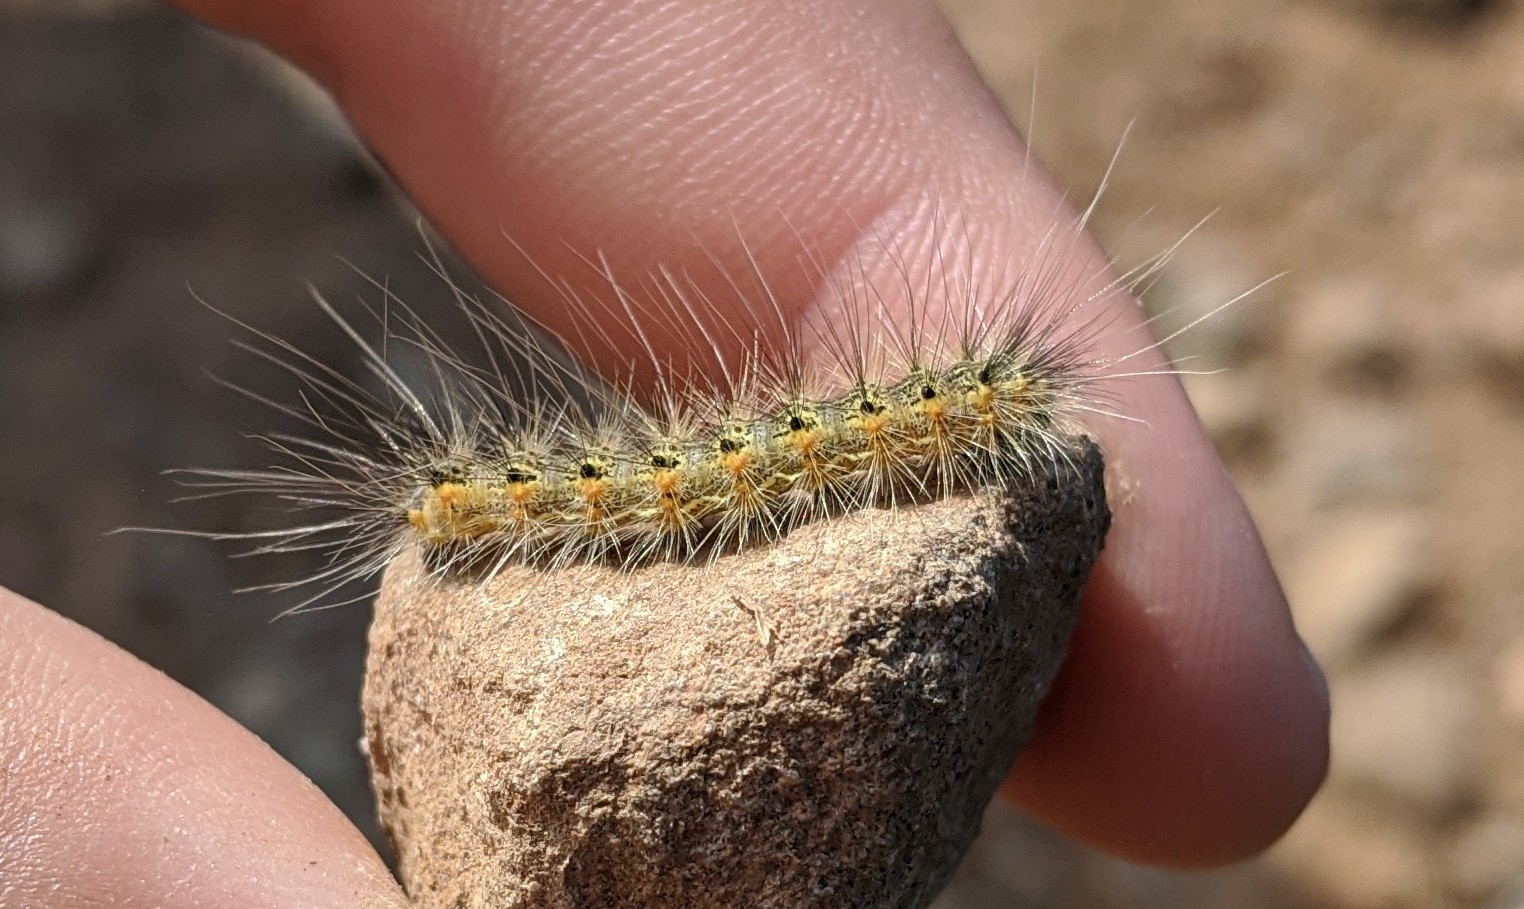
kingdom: Animalia
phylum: Arthropoda
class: Insecta
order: Lepidoptera
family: Erebidae
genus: Hyphantria
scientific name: Hyphantria cunea
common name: American white moth
